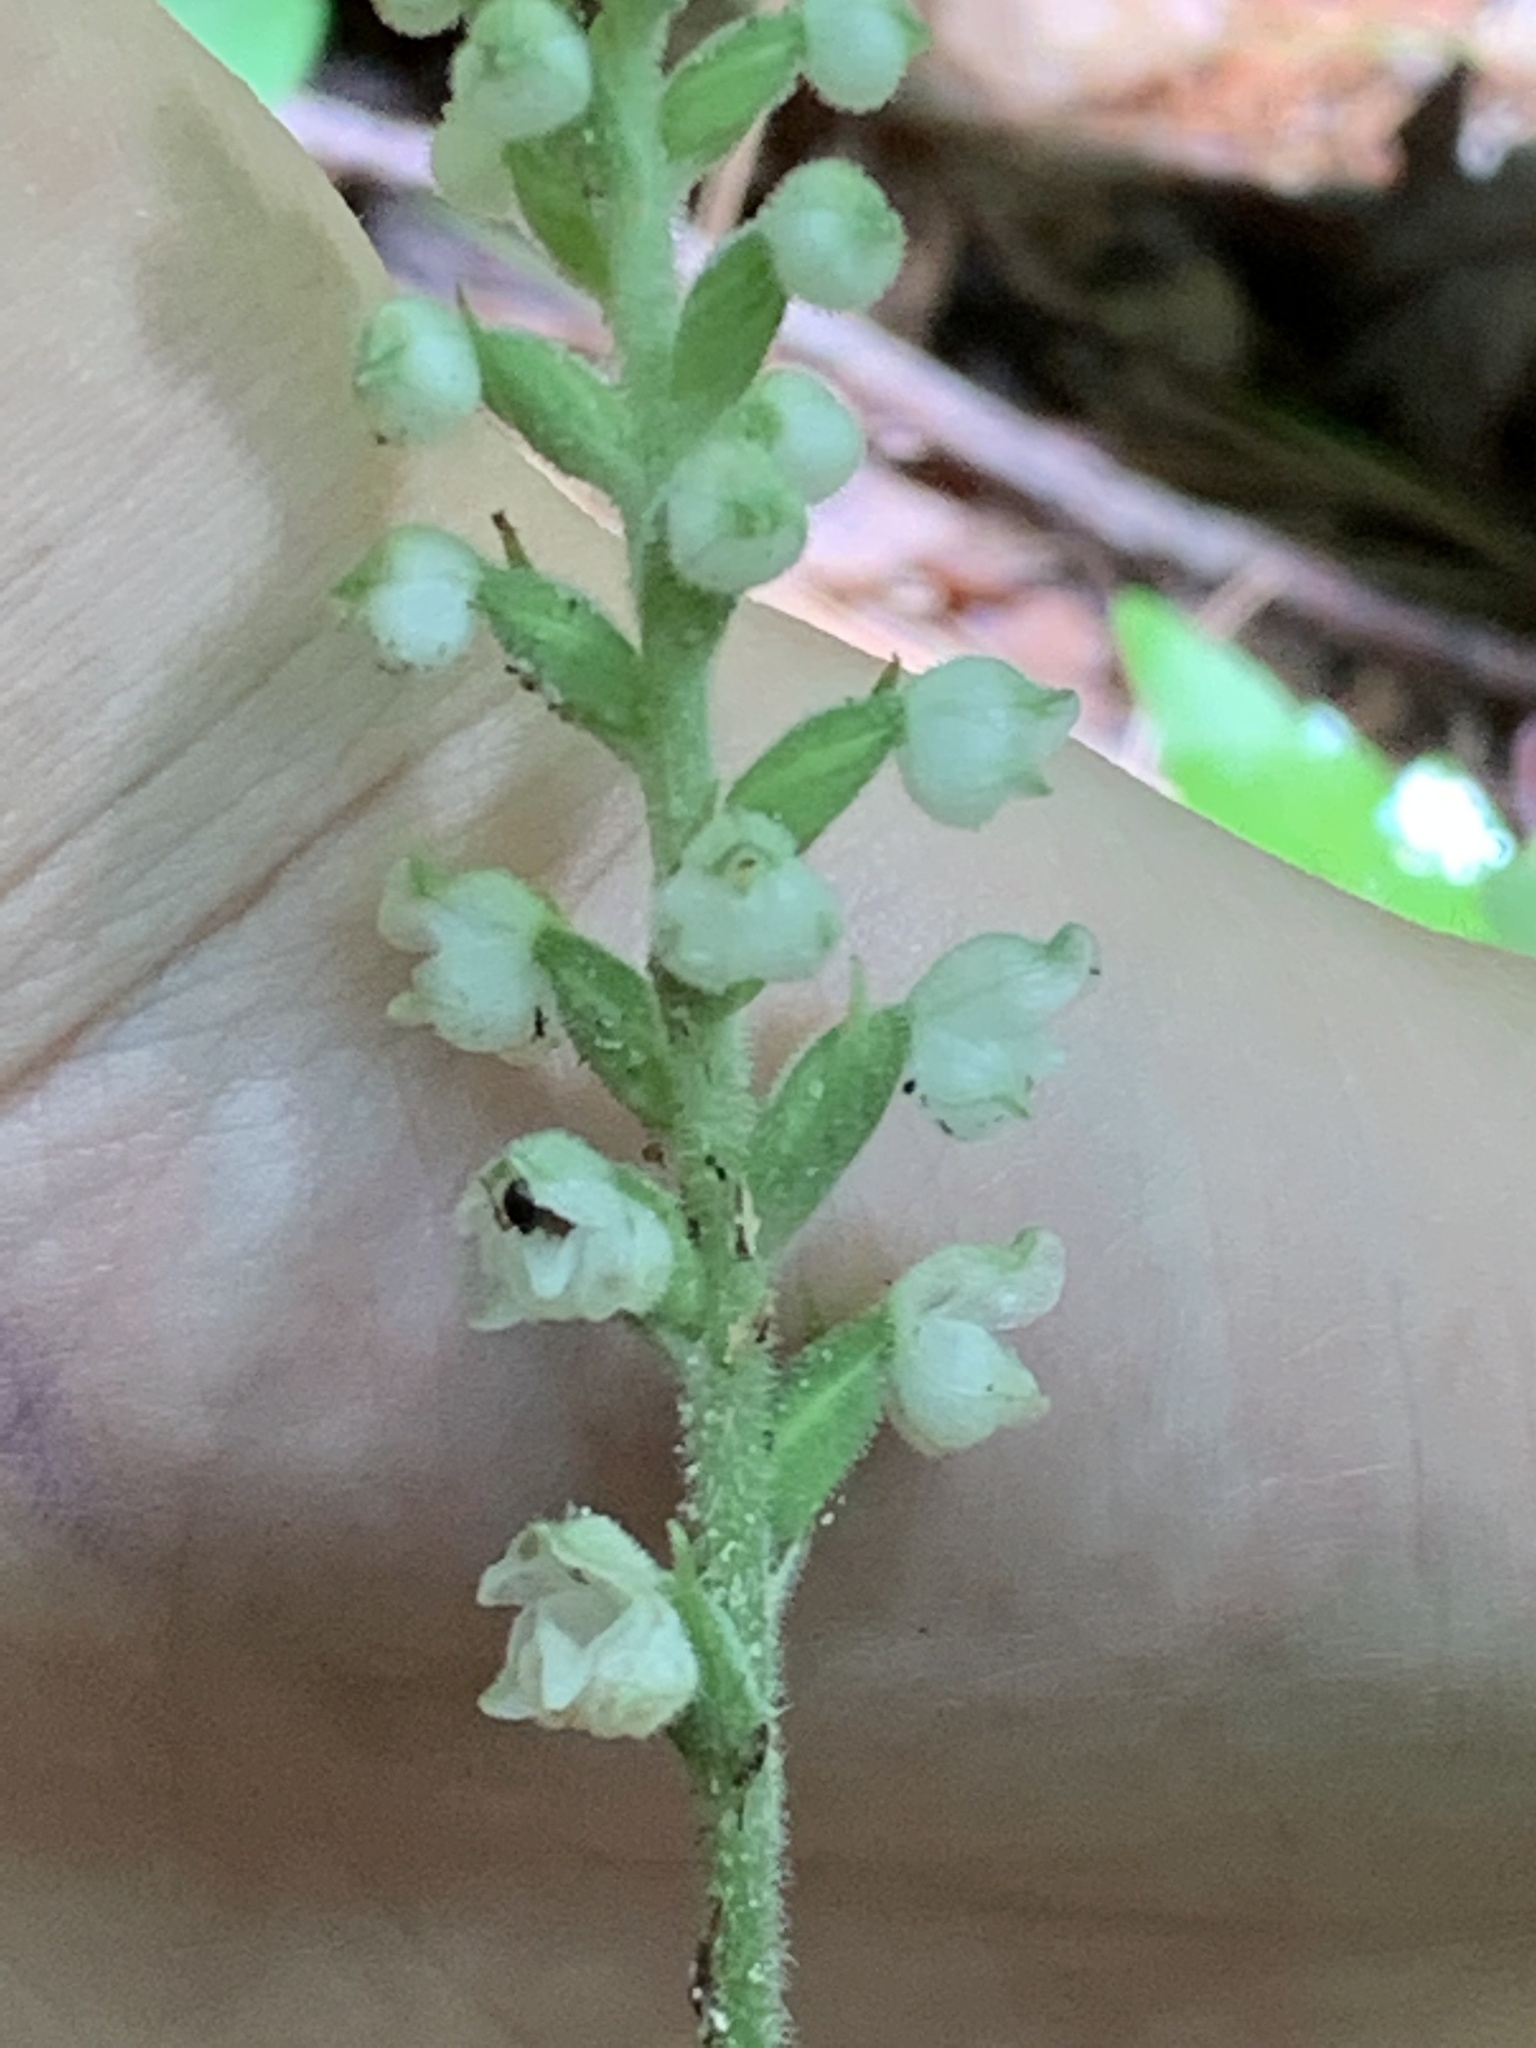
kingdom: Plantae
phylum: Tracheophyta
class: Liliopsida
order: Asparagales
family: Orchidaceae
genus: Goodyera
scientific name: Goodyera pubescens
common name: Downy rattlesnake-plantain
